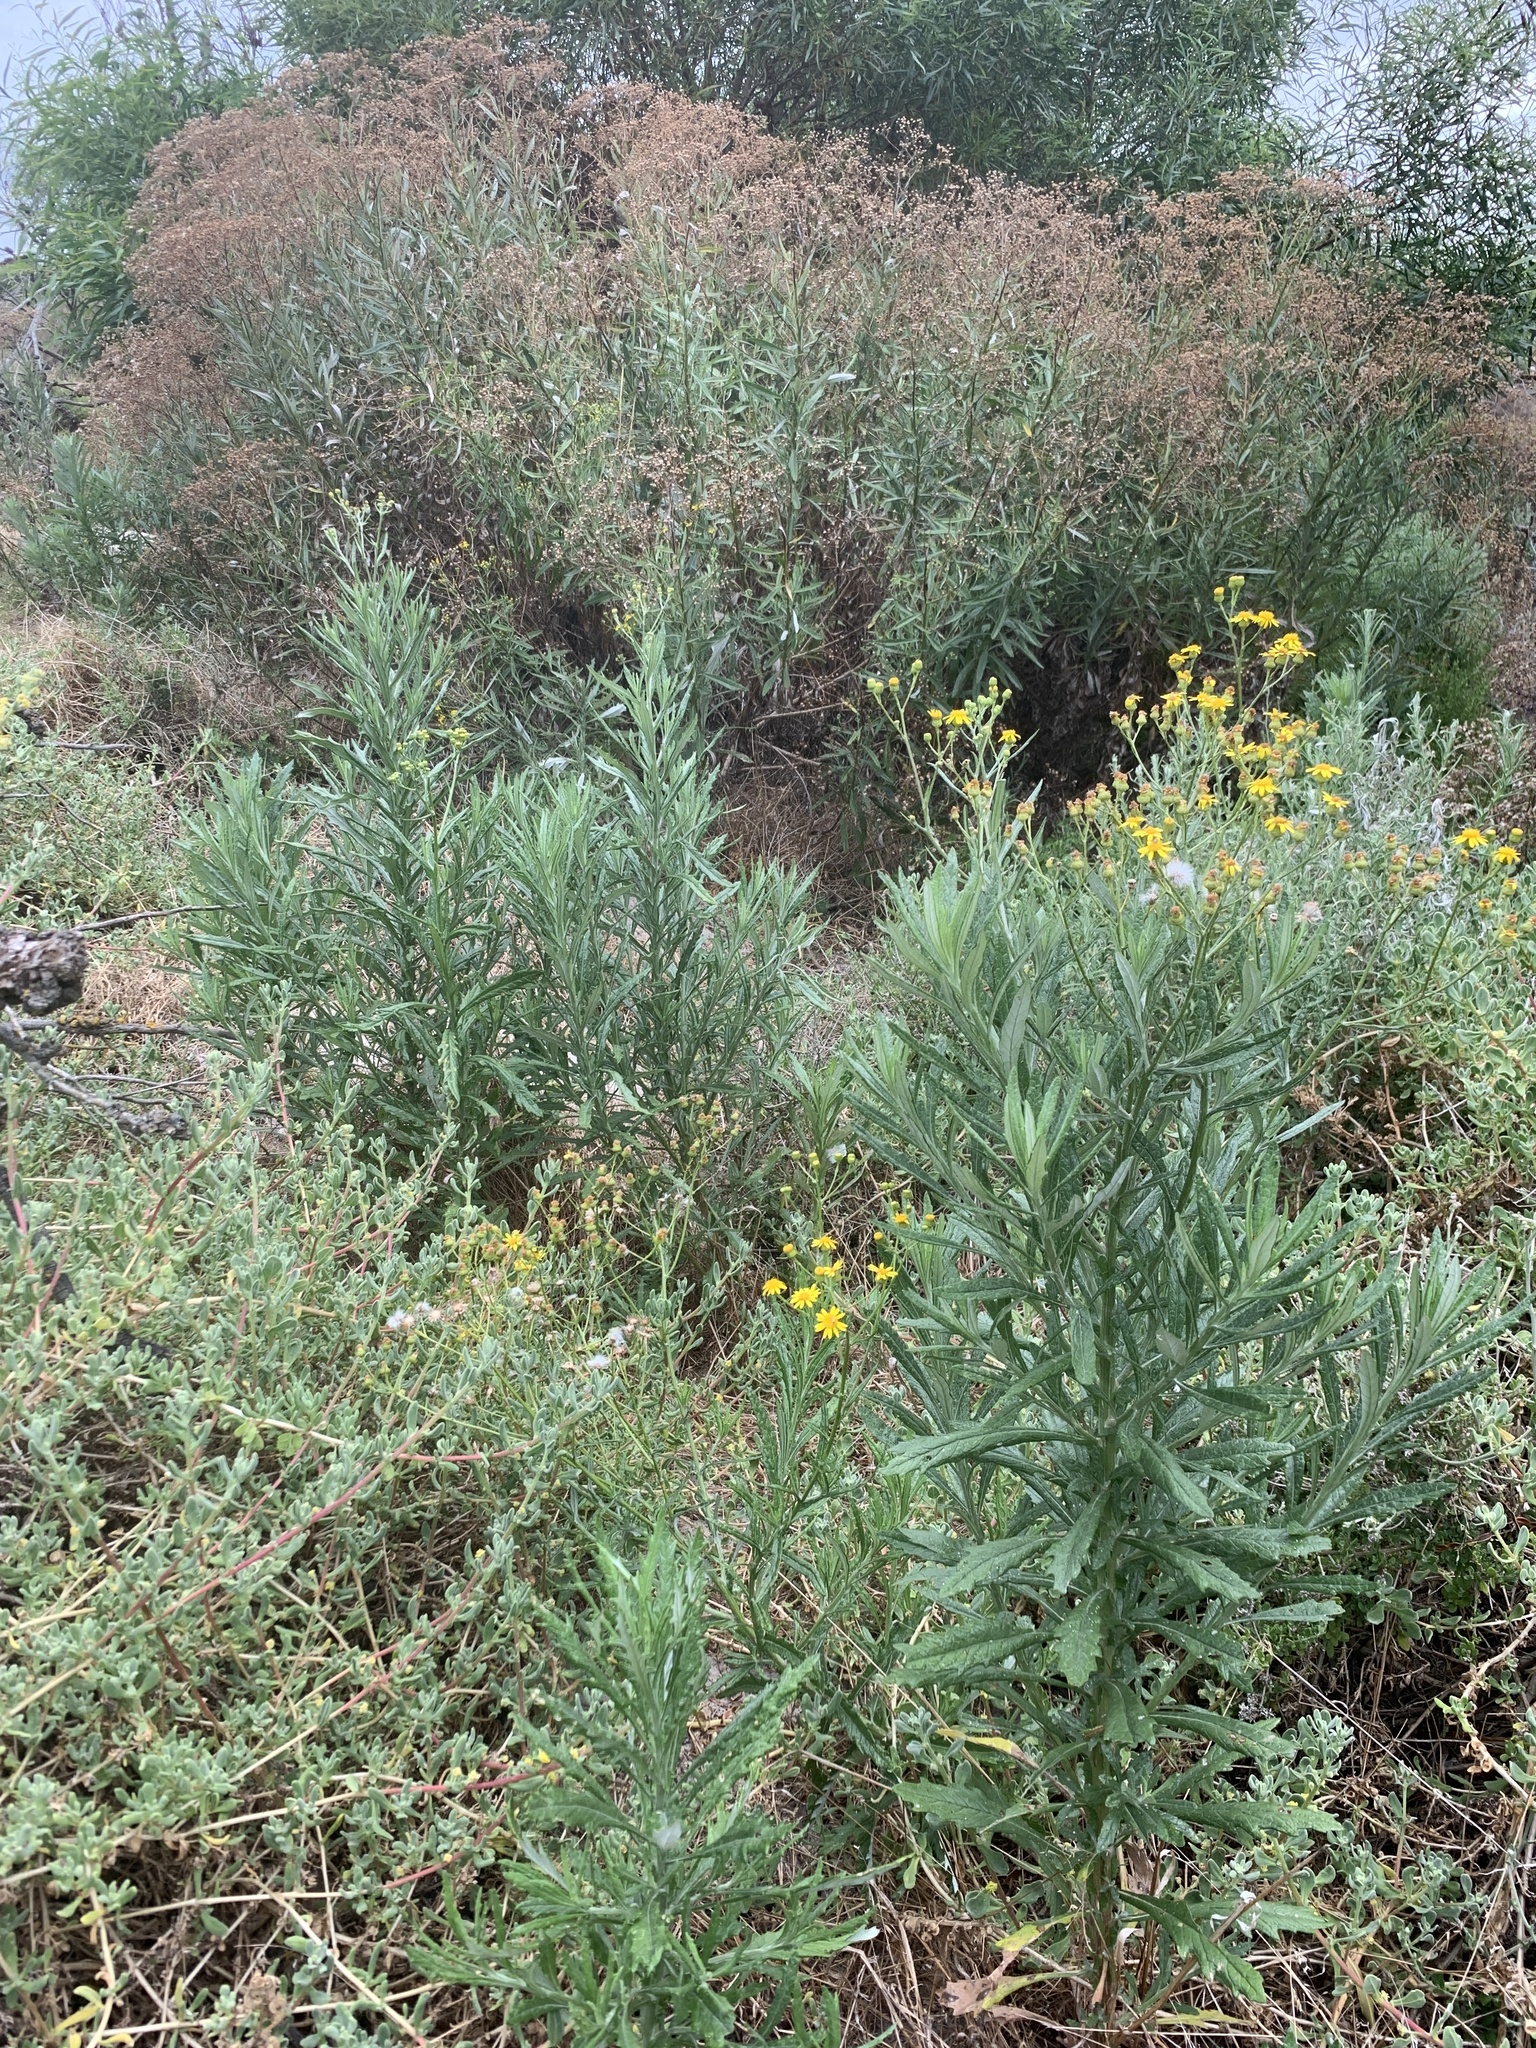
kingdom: Plantae
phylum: Tracheophyta
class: Magnoliopsida
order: Asterales
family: Asteraceae
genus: Senecio
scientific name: Senecio pterophorus
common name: Shoddy ragwort
